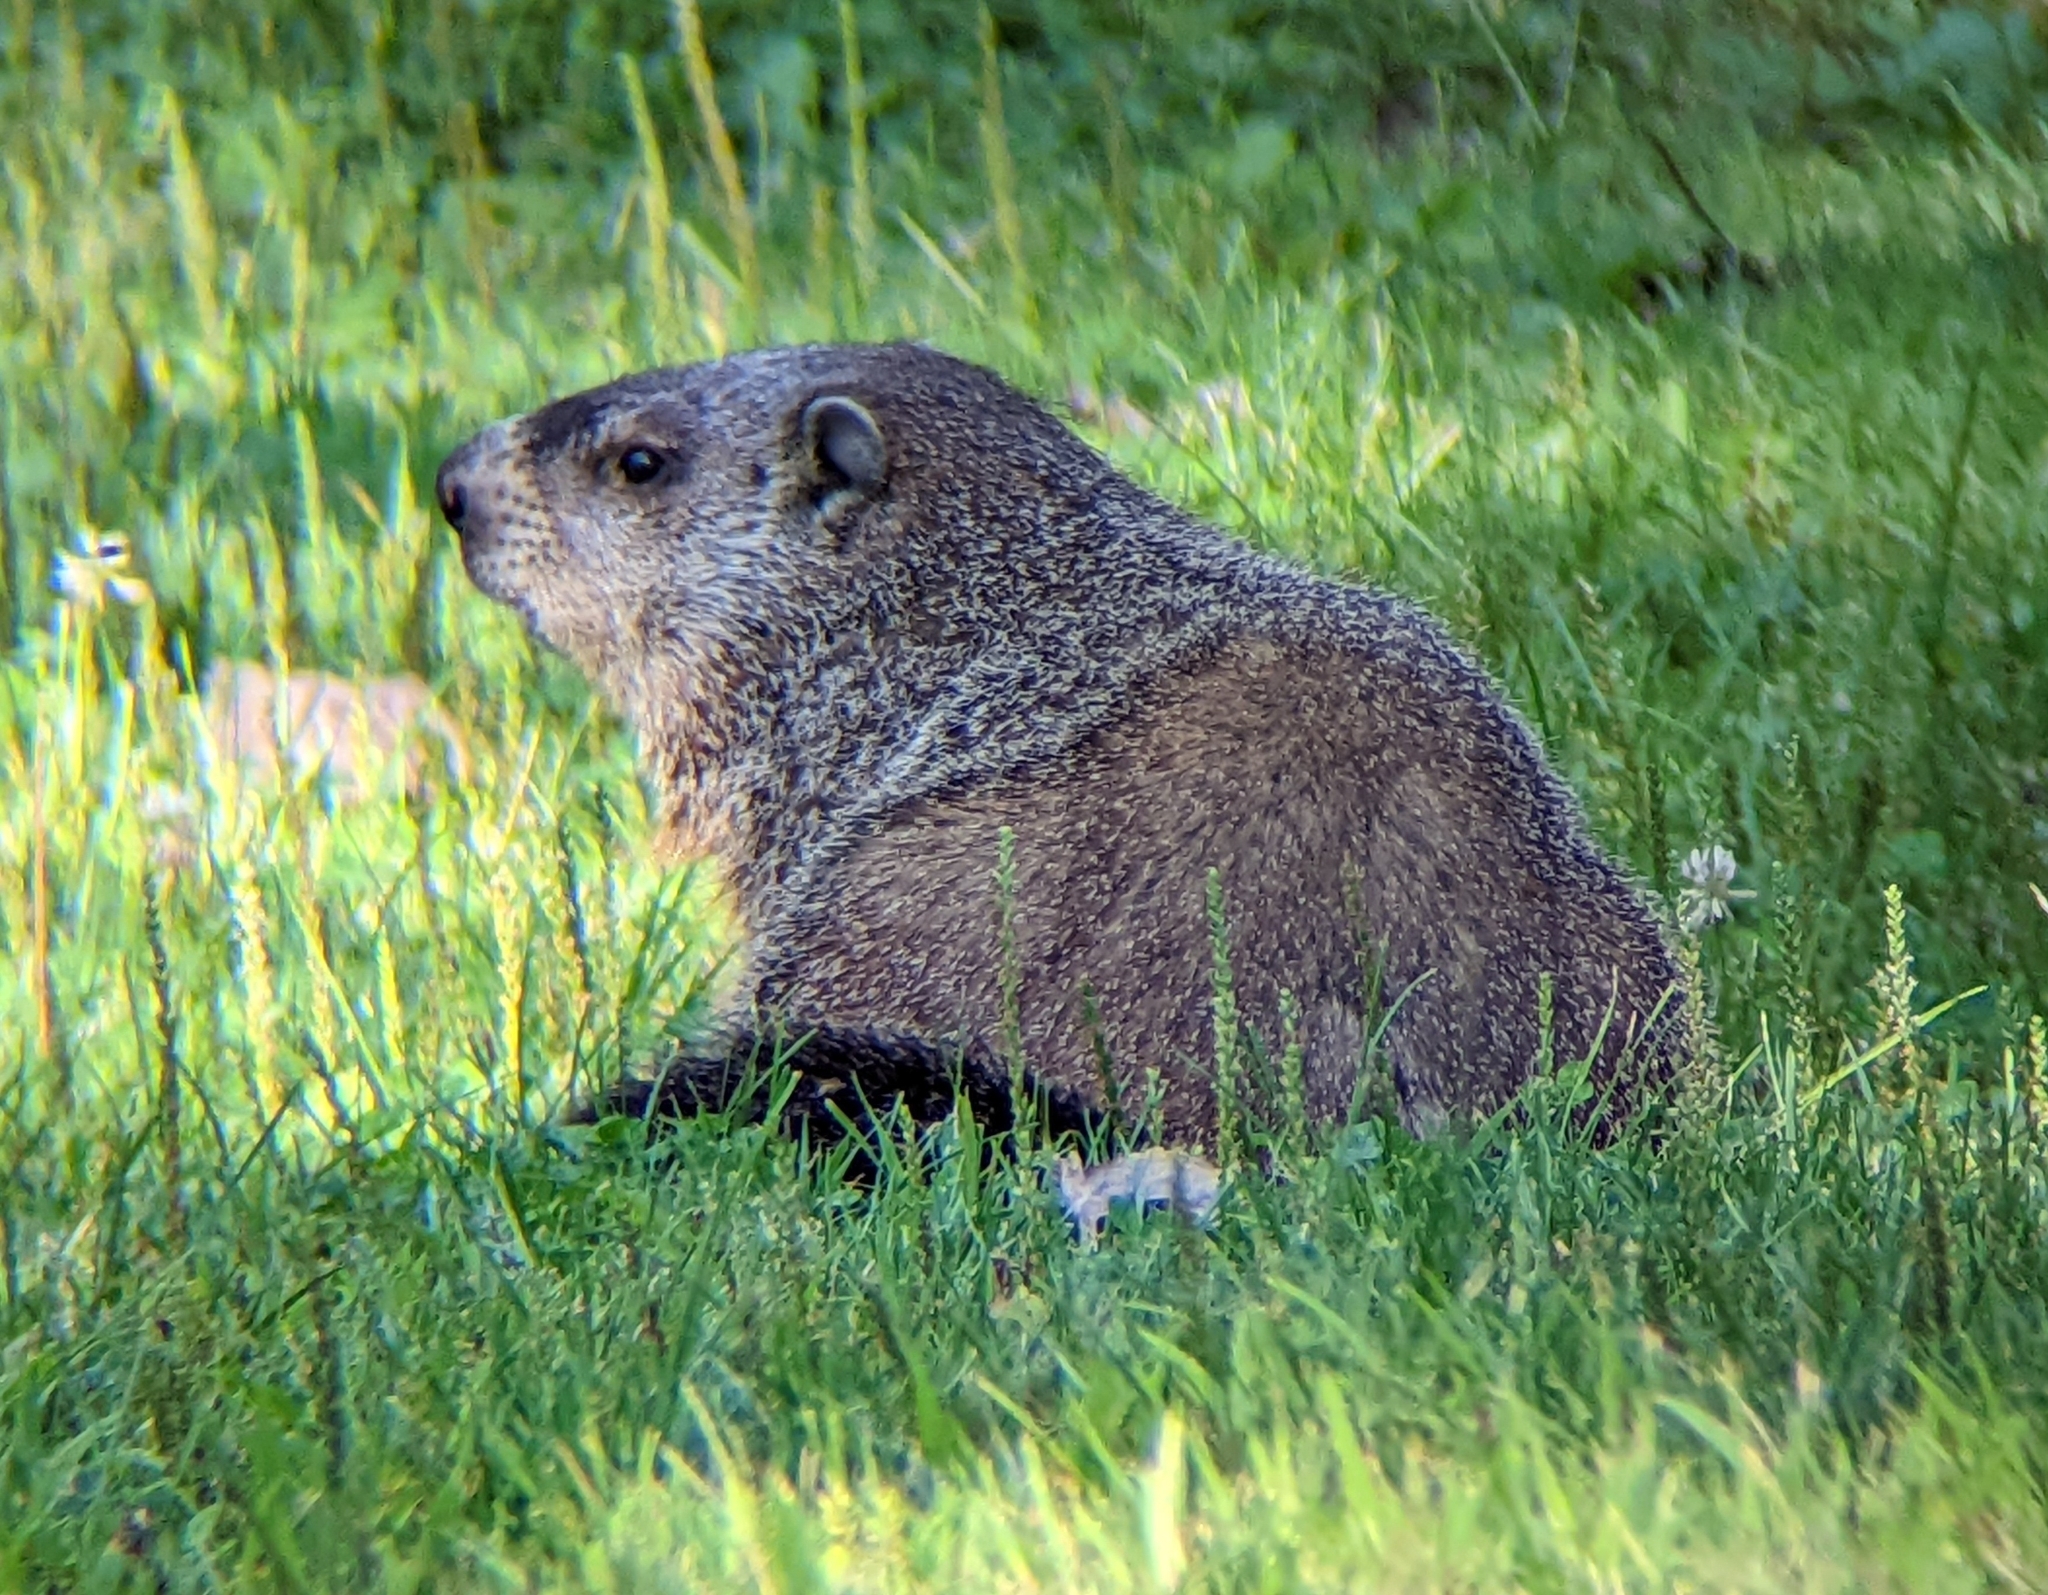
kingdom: Animalia
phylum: Chordata
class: Mammalia
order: Rodentia
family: Sciuridae
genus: Marmota
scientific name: Marmota monax
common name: Groundhog
